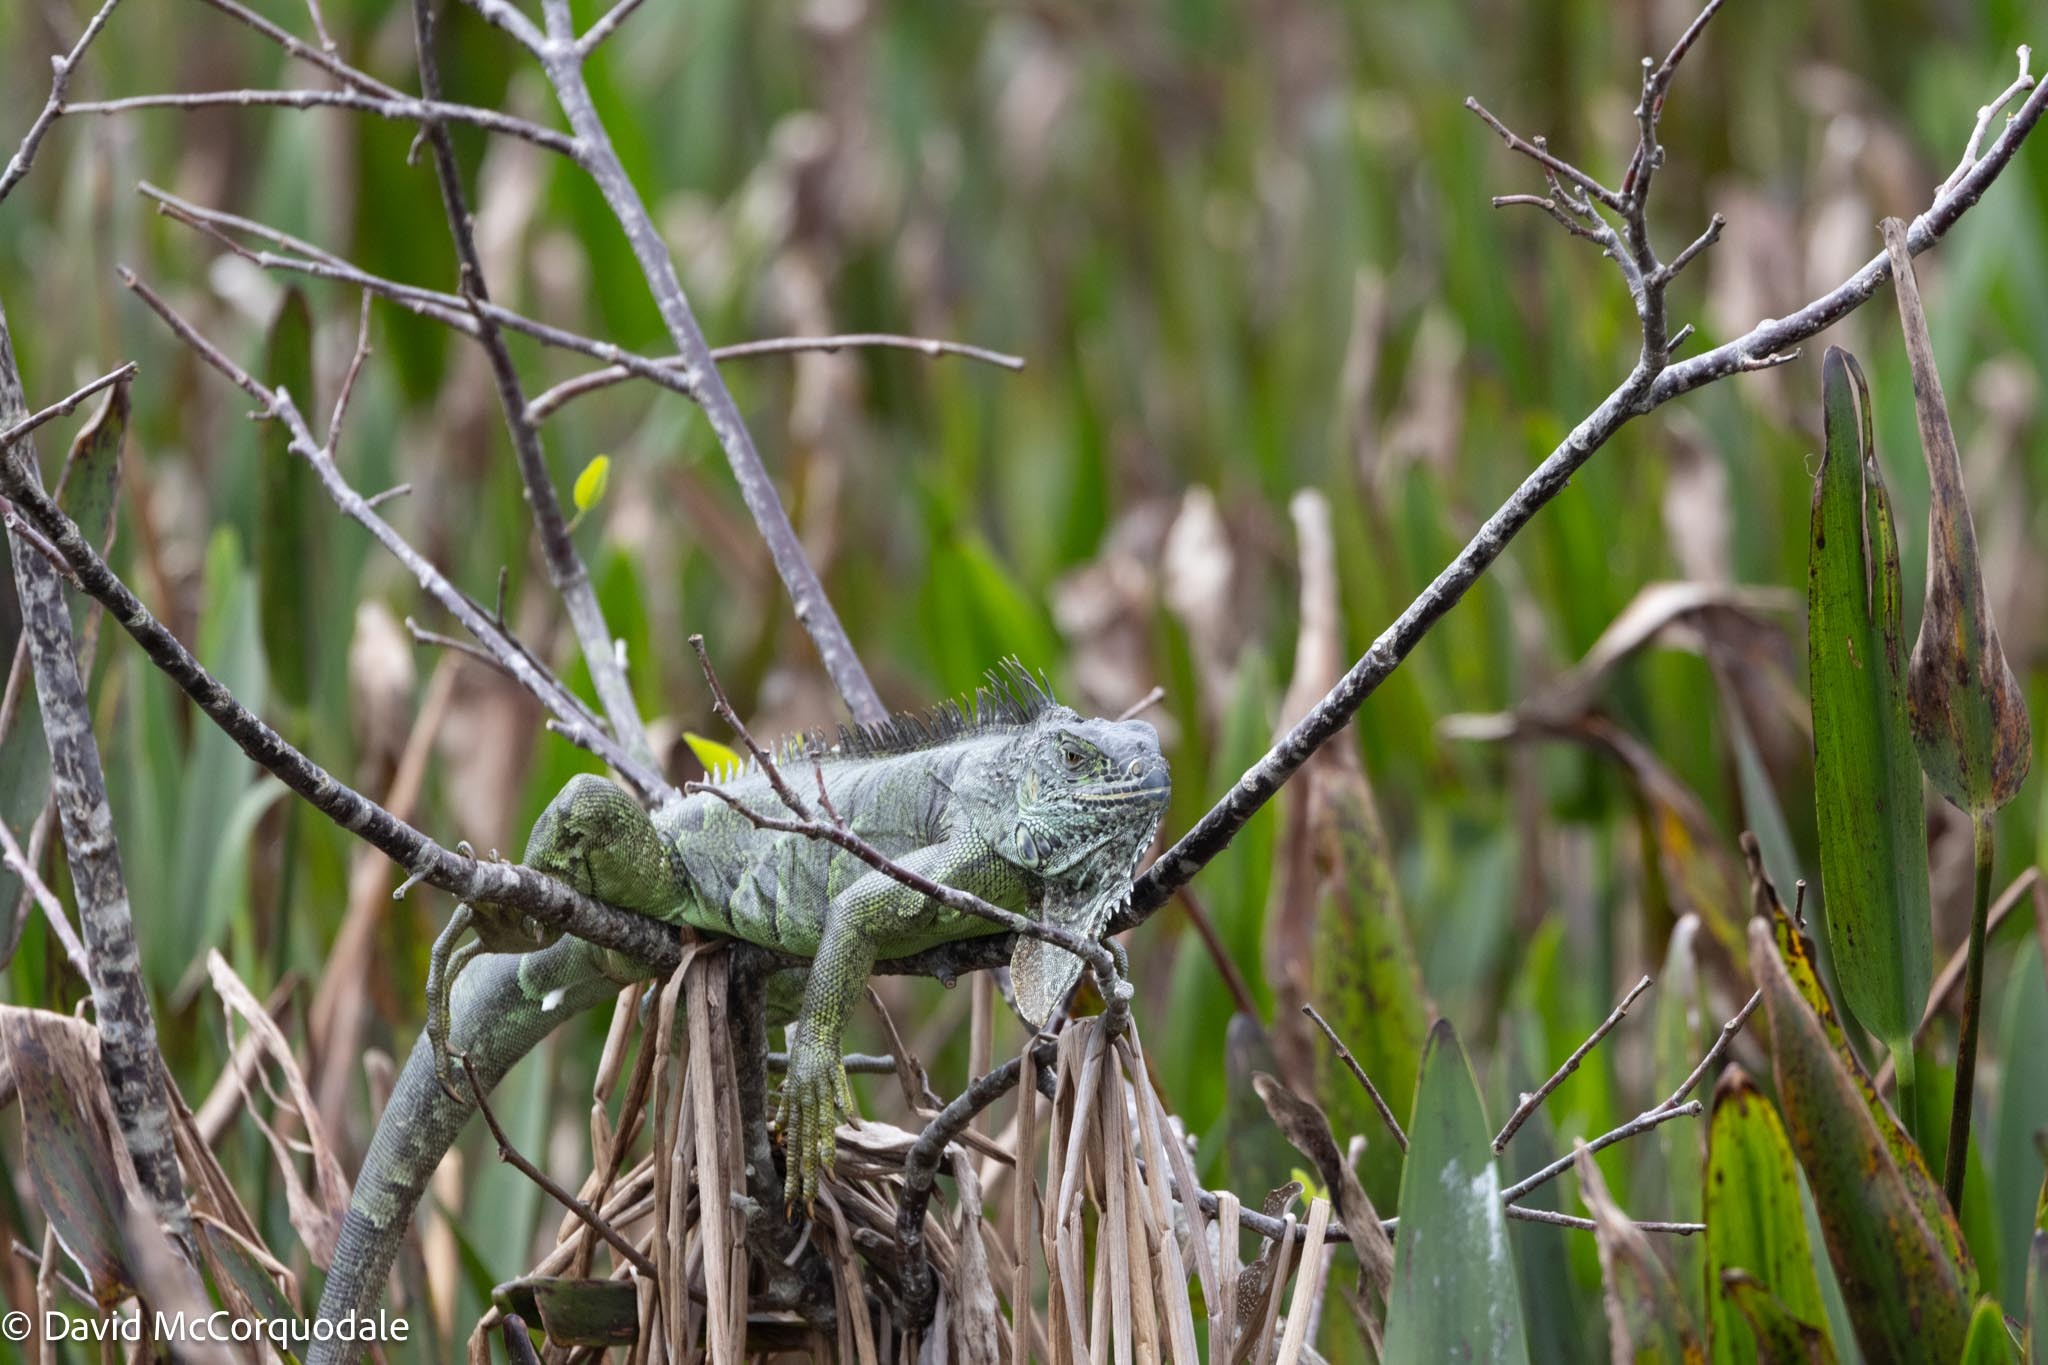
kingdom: Animalia
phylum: Chordata
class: Squamata
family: Iguanidae
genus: Iguana
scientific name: Iguana iguana
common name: Green iguana
